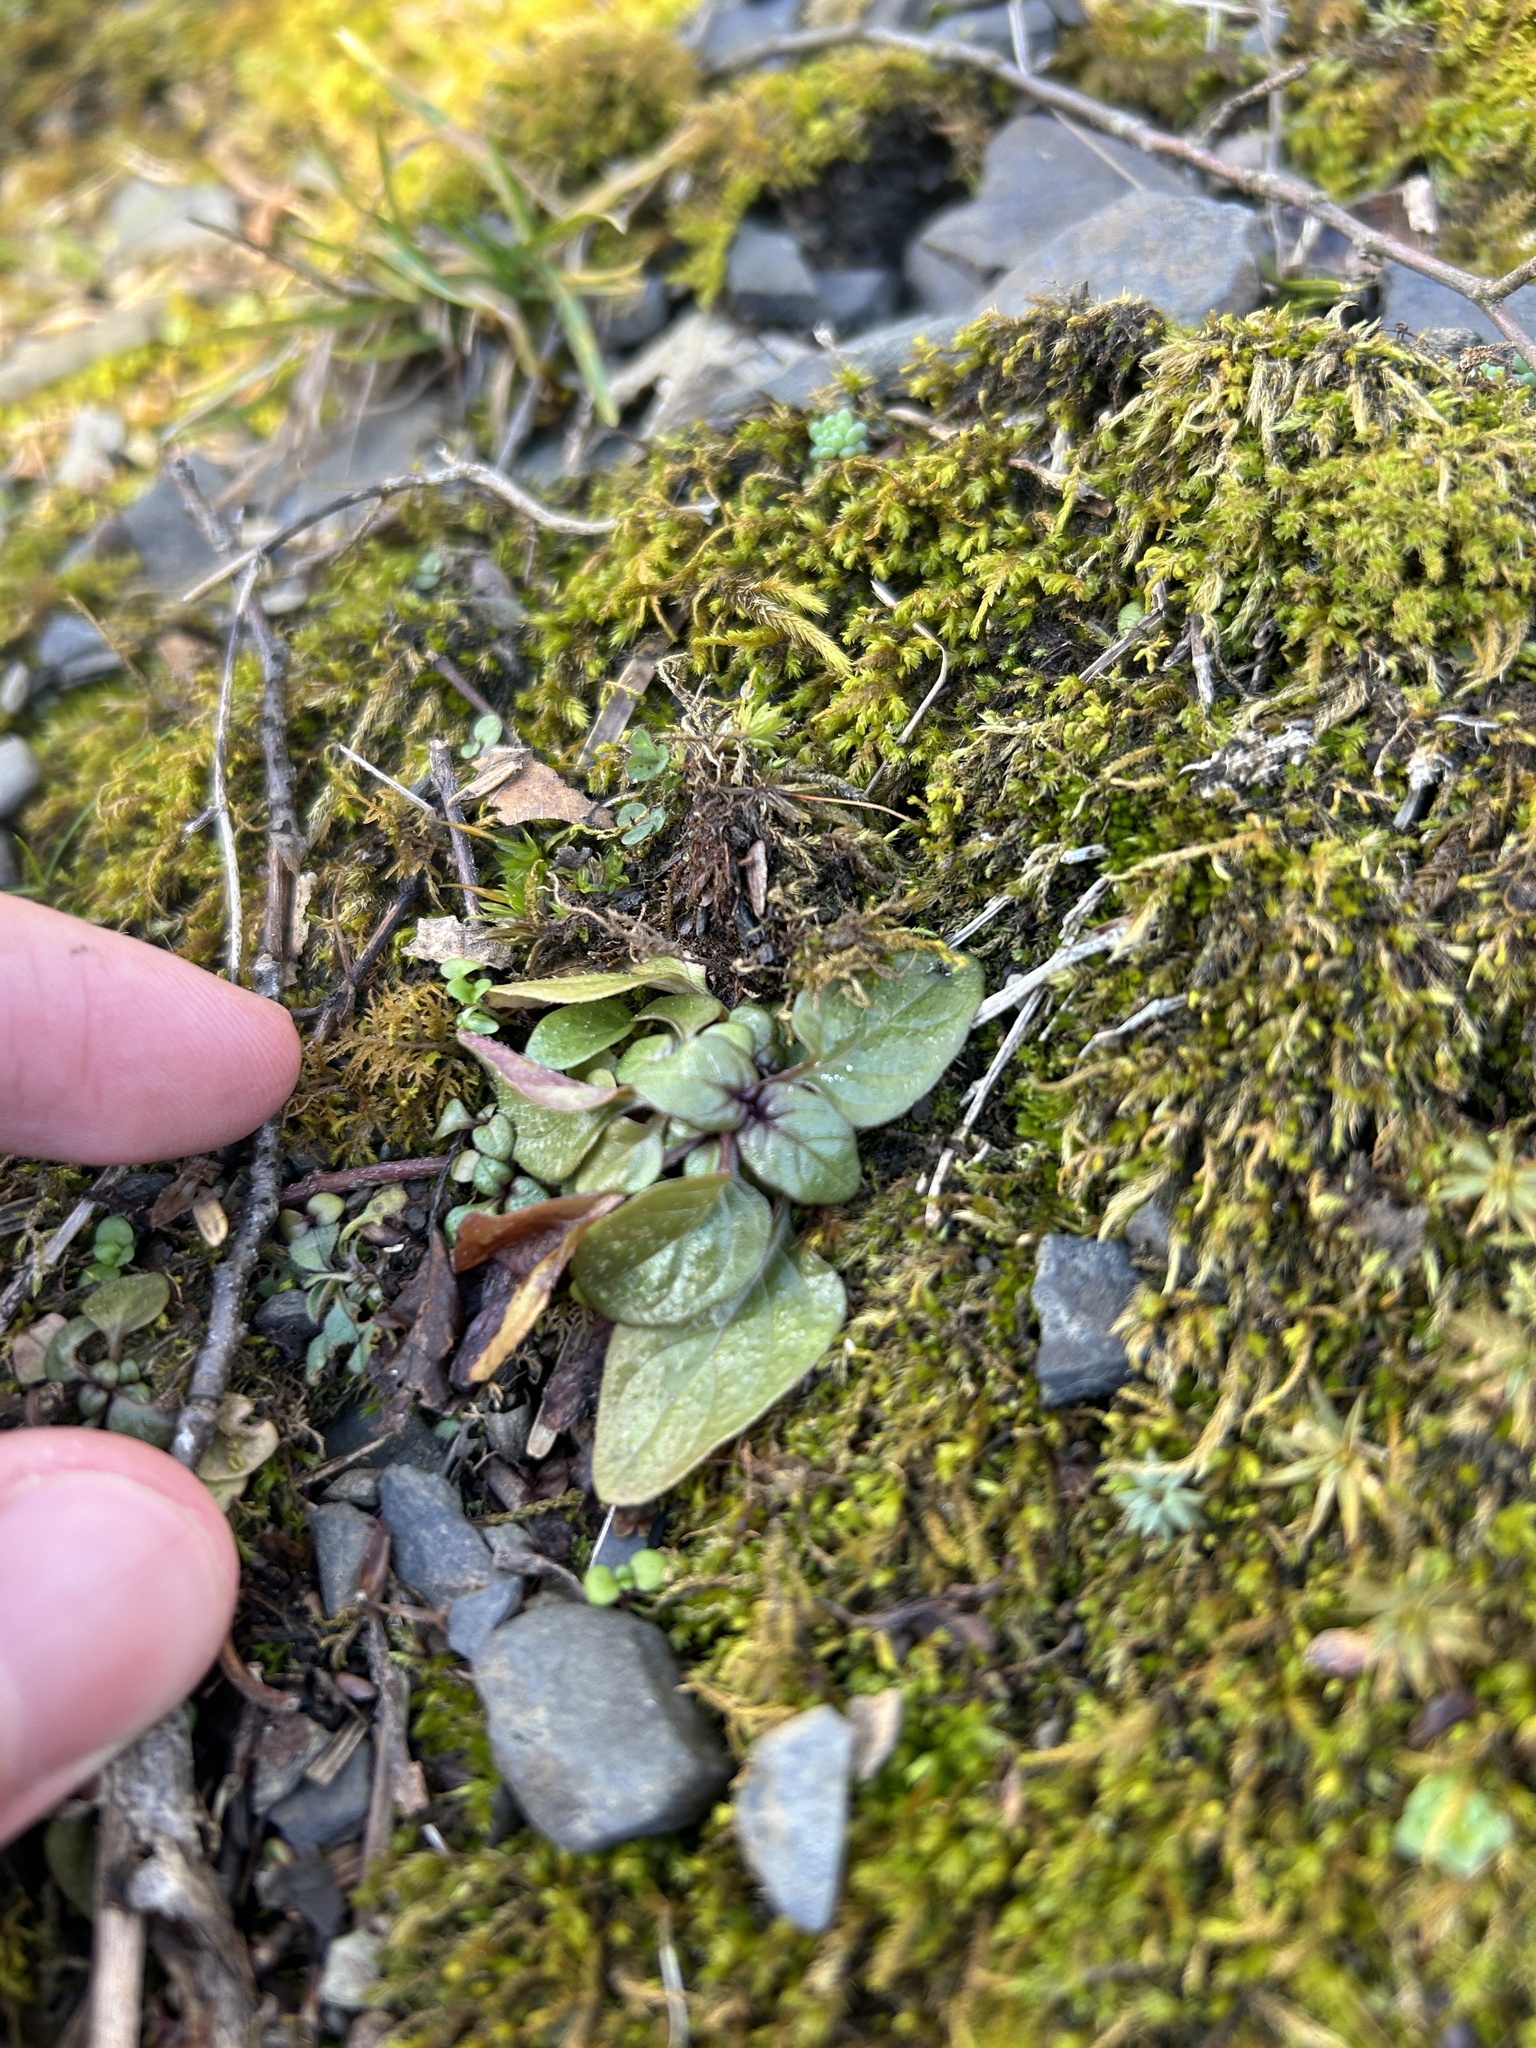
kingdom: Plantae
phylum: Tracheophyta
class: Magnoliopsida
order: Lamiales
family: Lamiaceae
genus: Prunella
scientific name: Prunella vulgaris
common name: Heal-all
